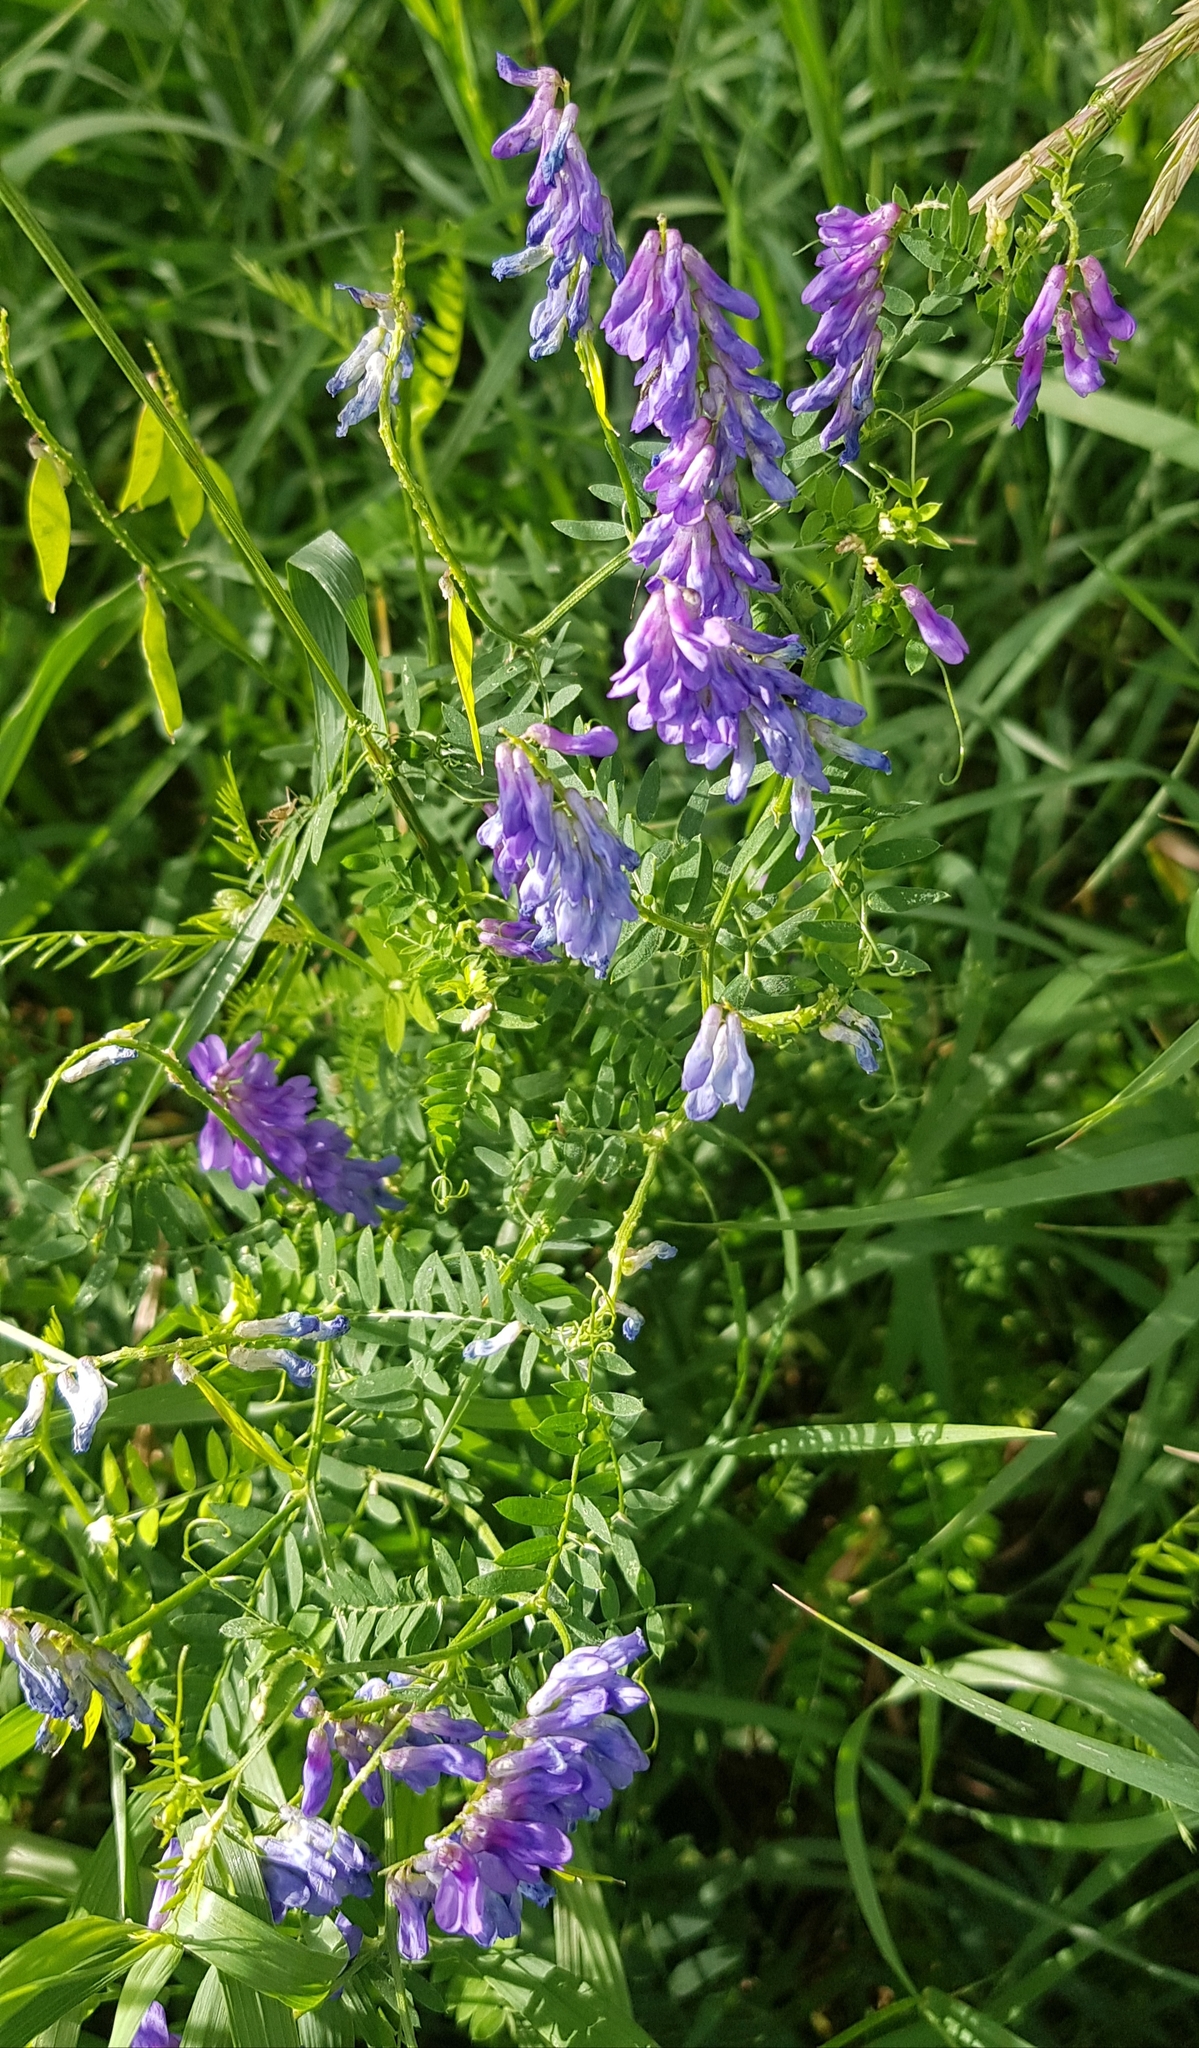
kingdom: Plantae
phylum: Tracheophyta
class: Magnoliopsida
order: Fabales
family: Fabaceae
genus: Vicia
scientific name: Vicia cracca
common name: Bird vetch
